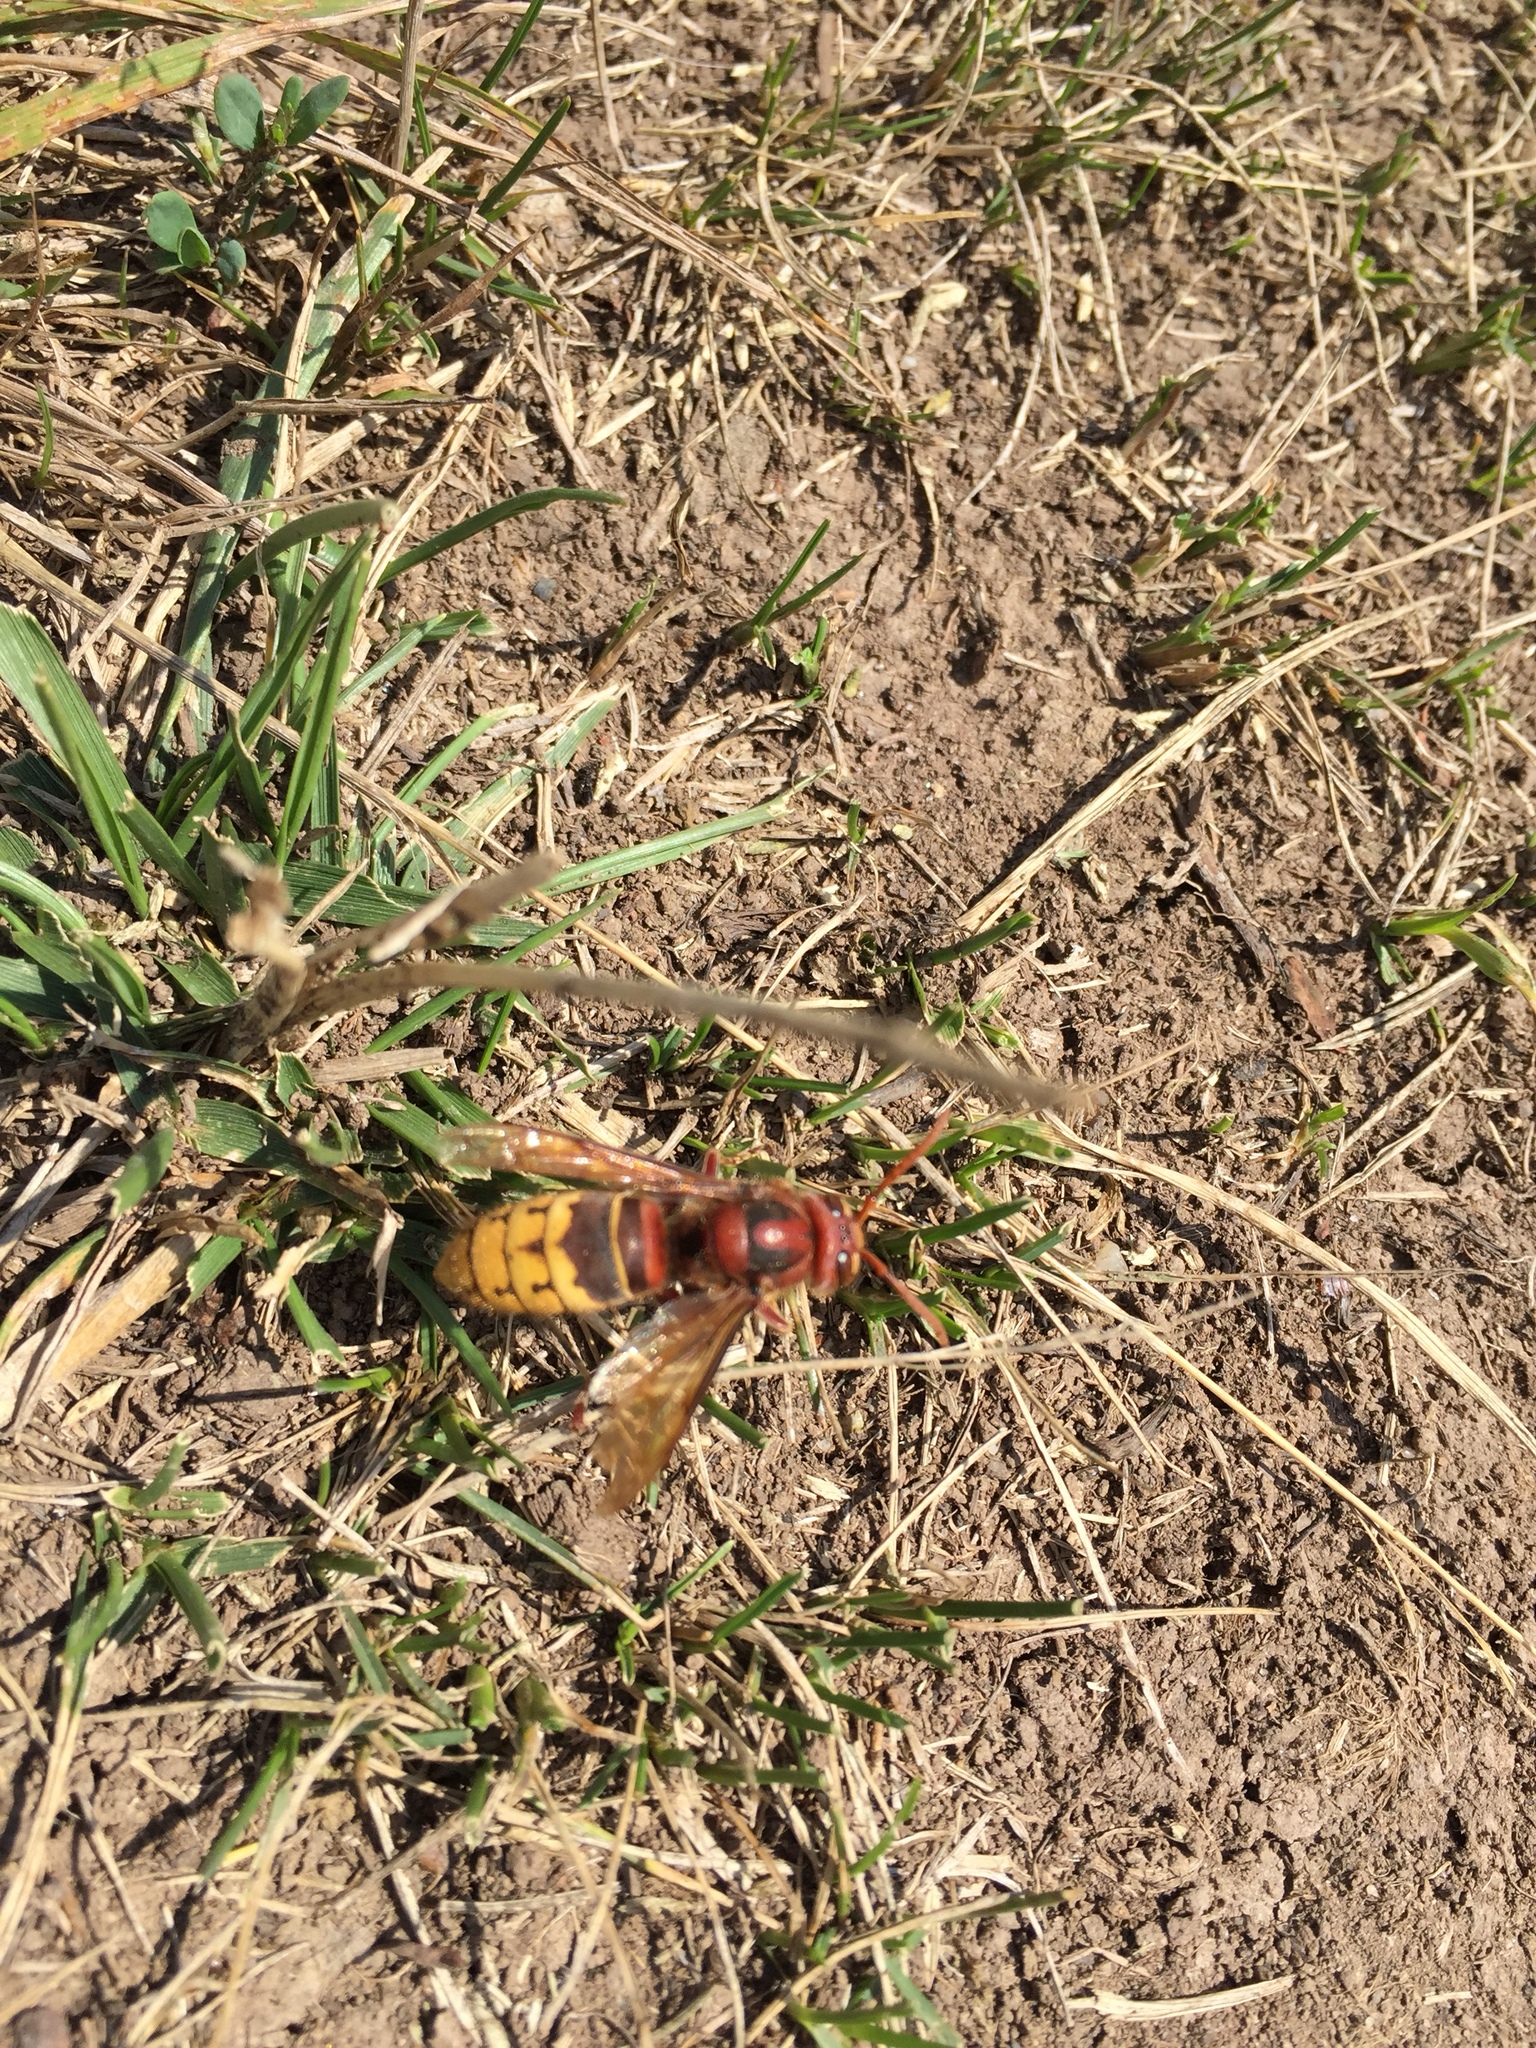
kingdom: Animalia
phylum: Arthropoda
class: Insecta
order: Hymenoptera
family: Vespidae
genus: Vespa
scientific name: Vespa crabro
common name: Hornet
